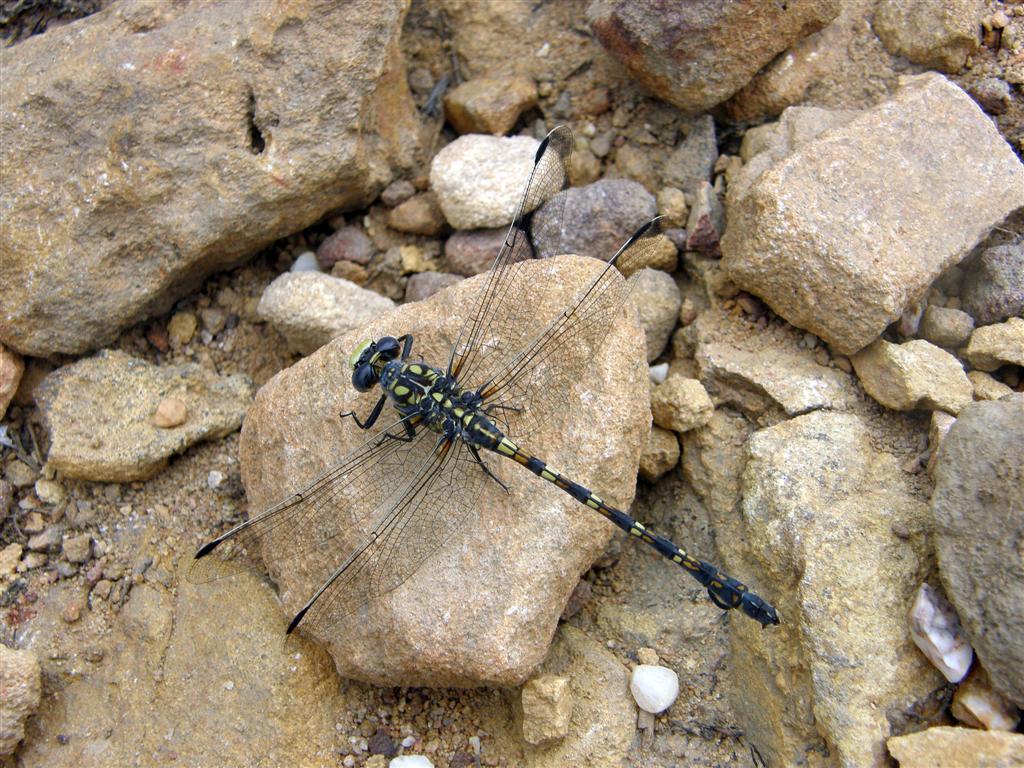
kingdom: Animalia
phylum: Arthropoda
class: Insecta
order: Odonata
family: Gomphidae
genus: Ceratogomphus
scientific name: Ceratogomphus triceraticus
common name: Cape thorntail
